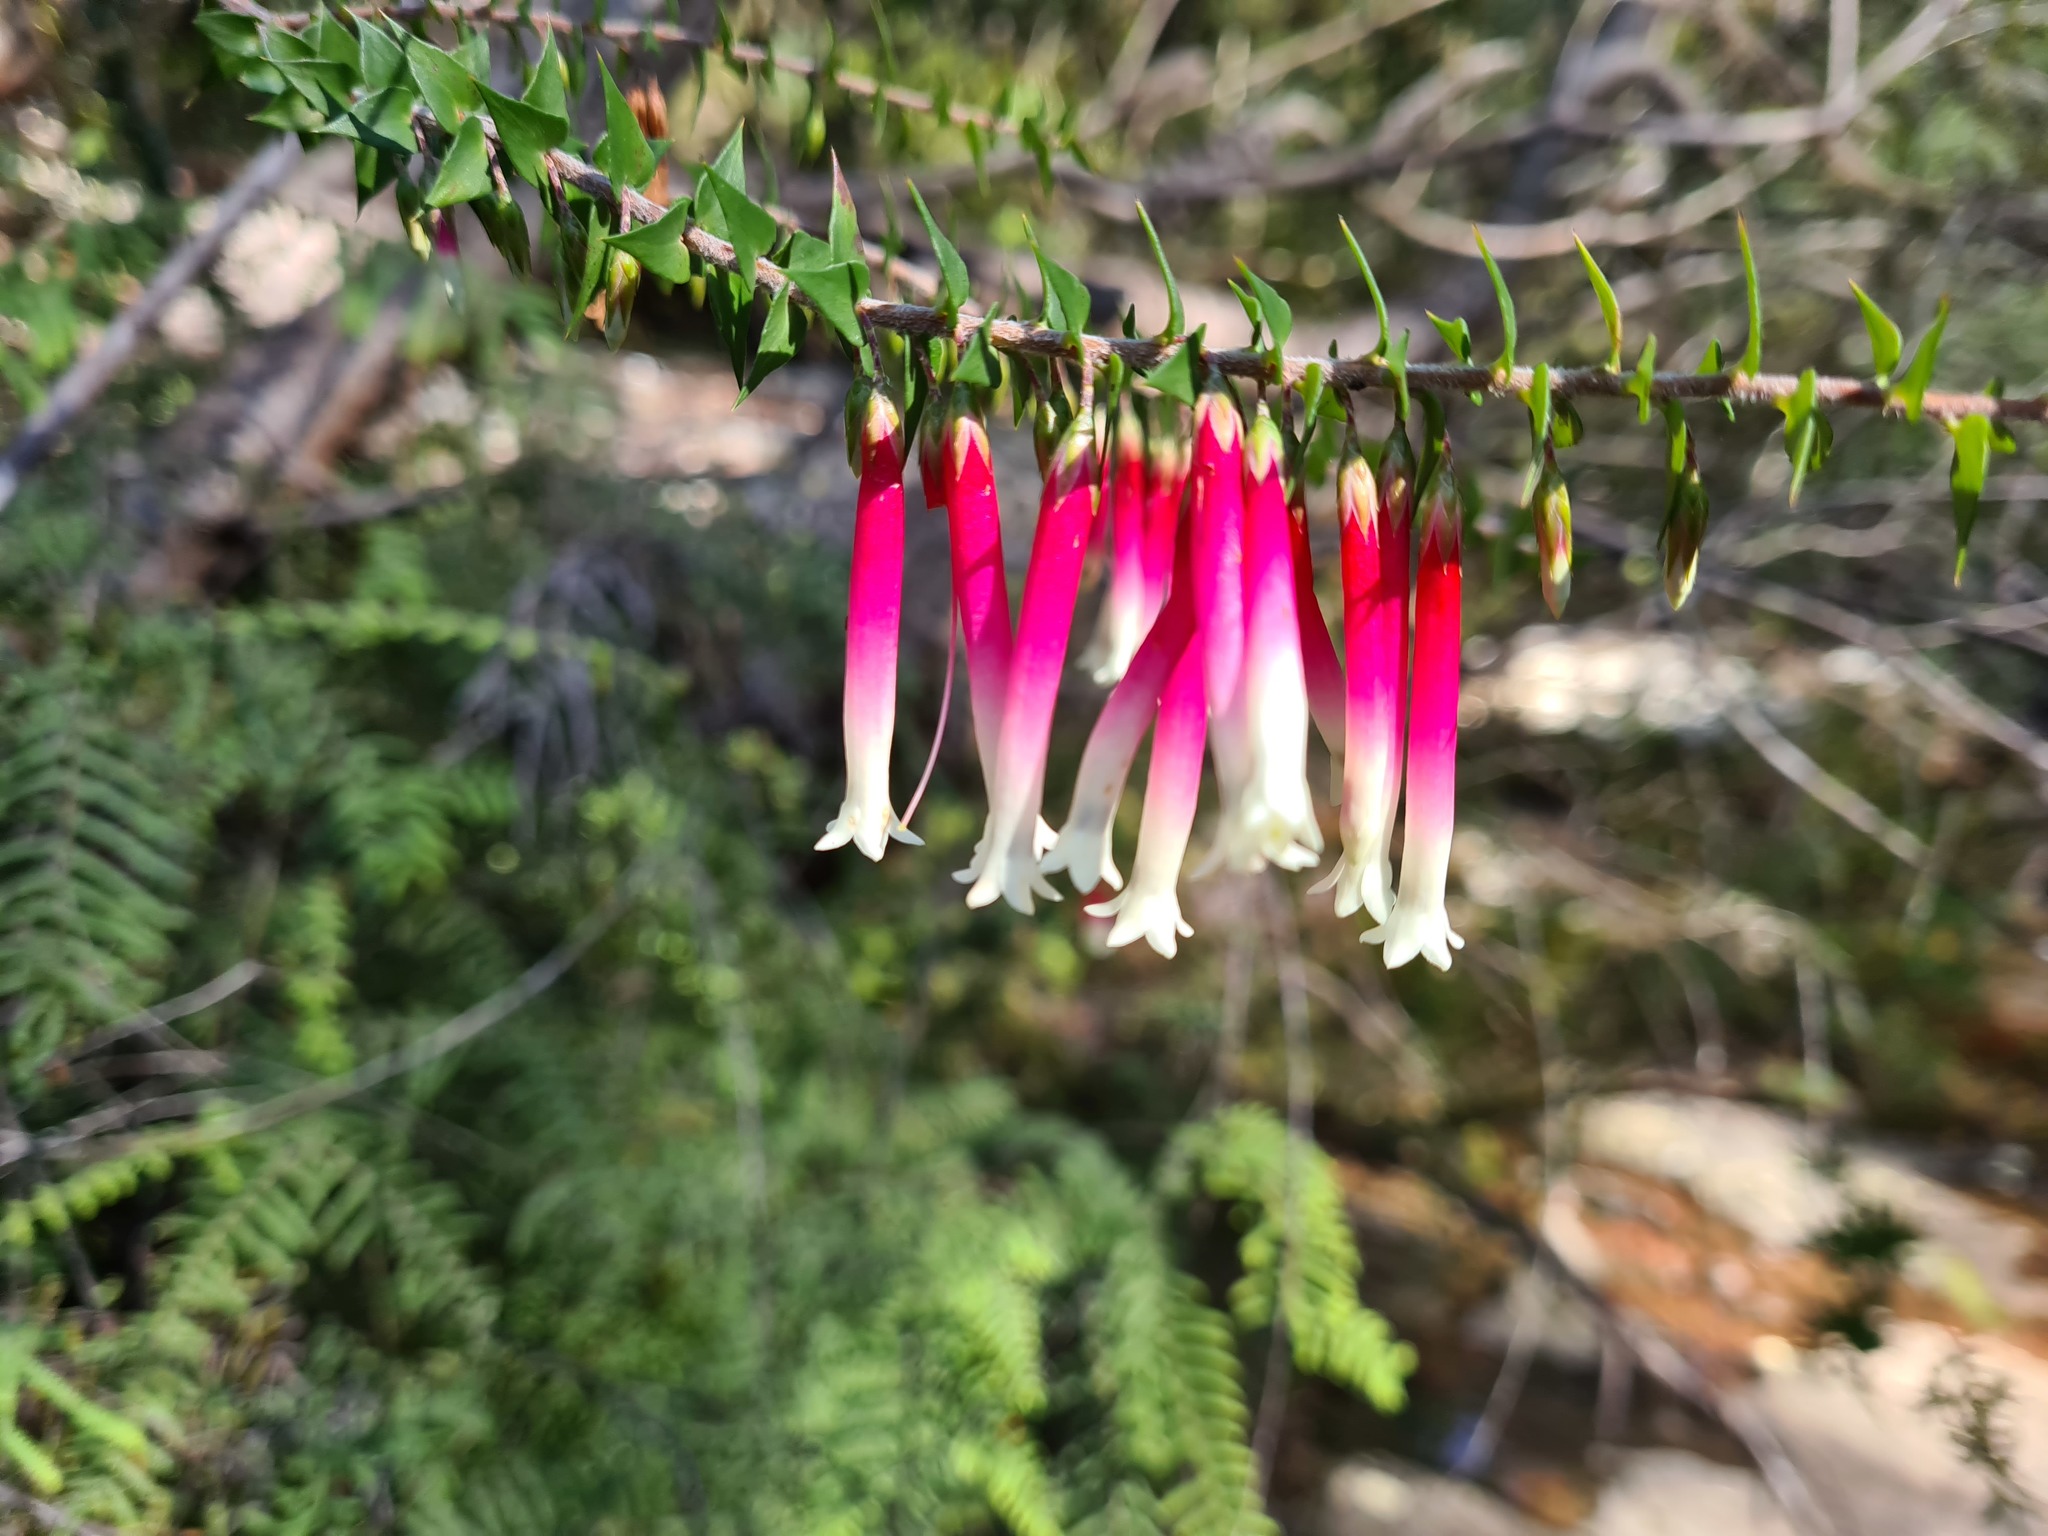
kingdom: Plantae
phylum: Tracheophyta
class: Magnoliopsida
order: Ericales
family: Ericaceae
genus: Epacris
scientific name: Epacris longiflora
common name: Fuchsia-heath
